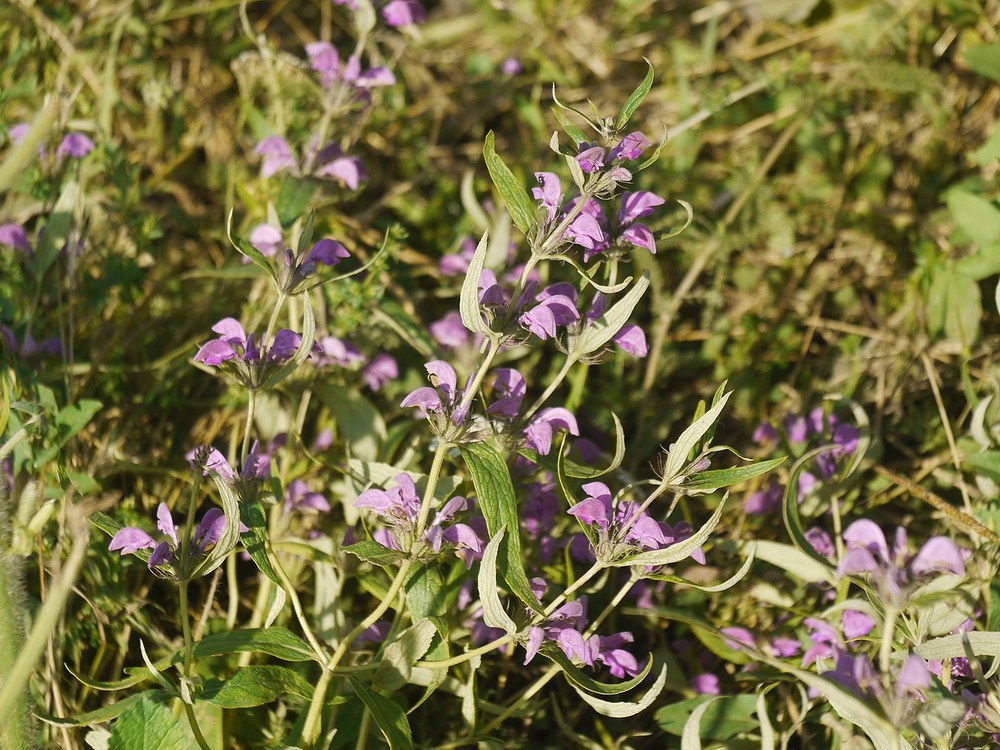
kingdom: Plantae
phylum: Tracheophyta
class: Magnoliopsida
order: Lamiales
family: Lamiaceae
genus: Phlomis
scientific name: Phlomis herba-venti
